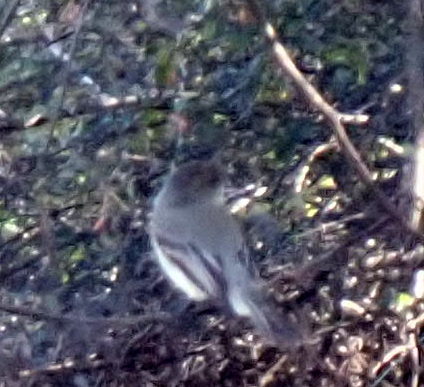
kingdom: Animalia
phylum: Chordata
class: Aves
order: Passeriformes
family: Tyrannidae
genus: Sayornis
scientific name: Sayornis phoebe
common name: Eastern phoebe
